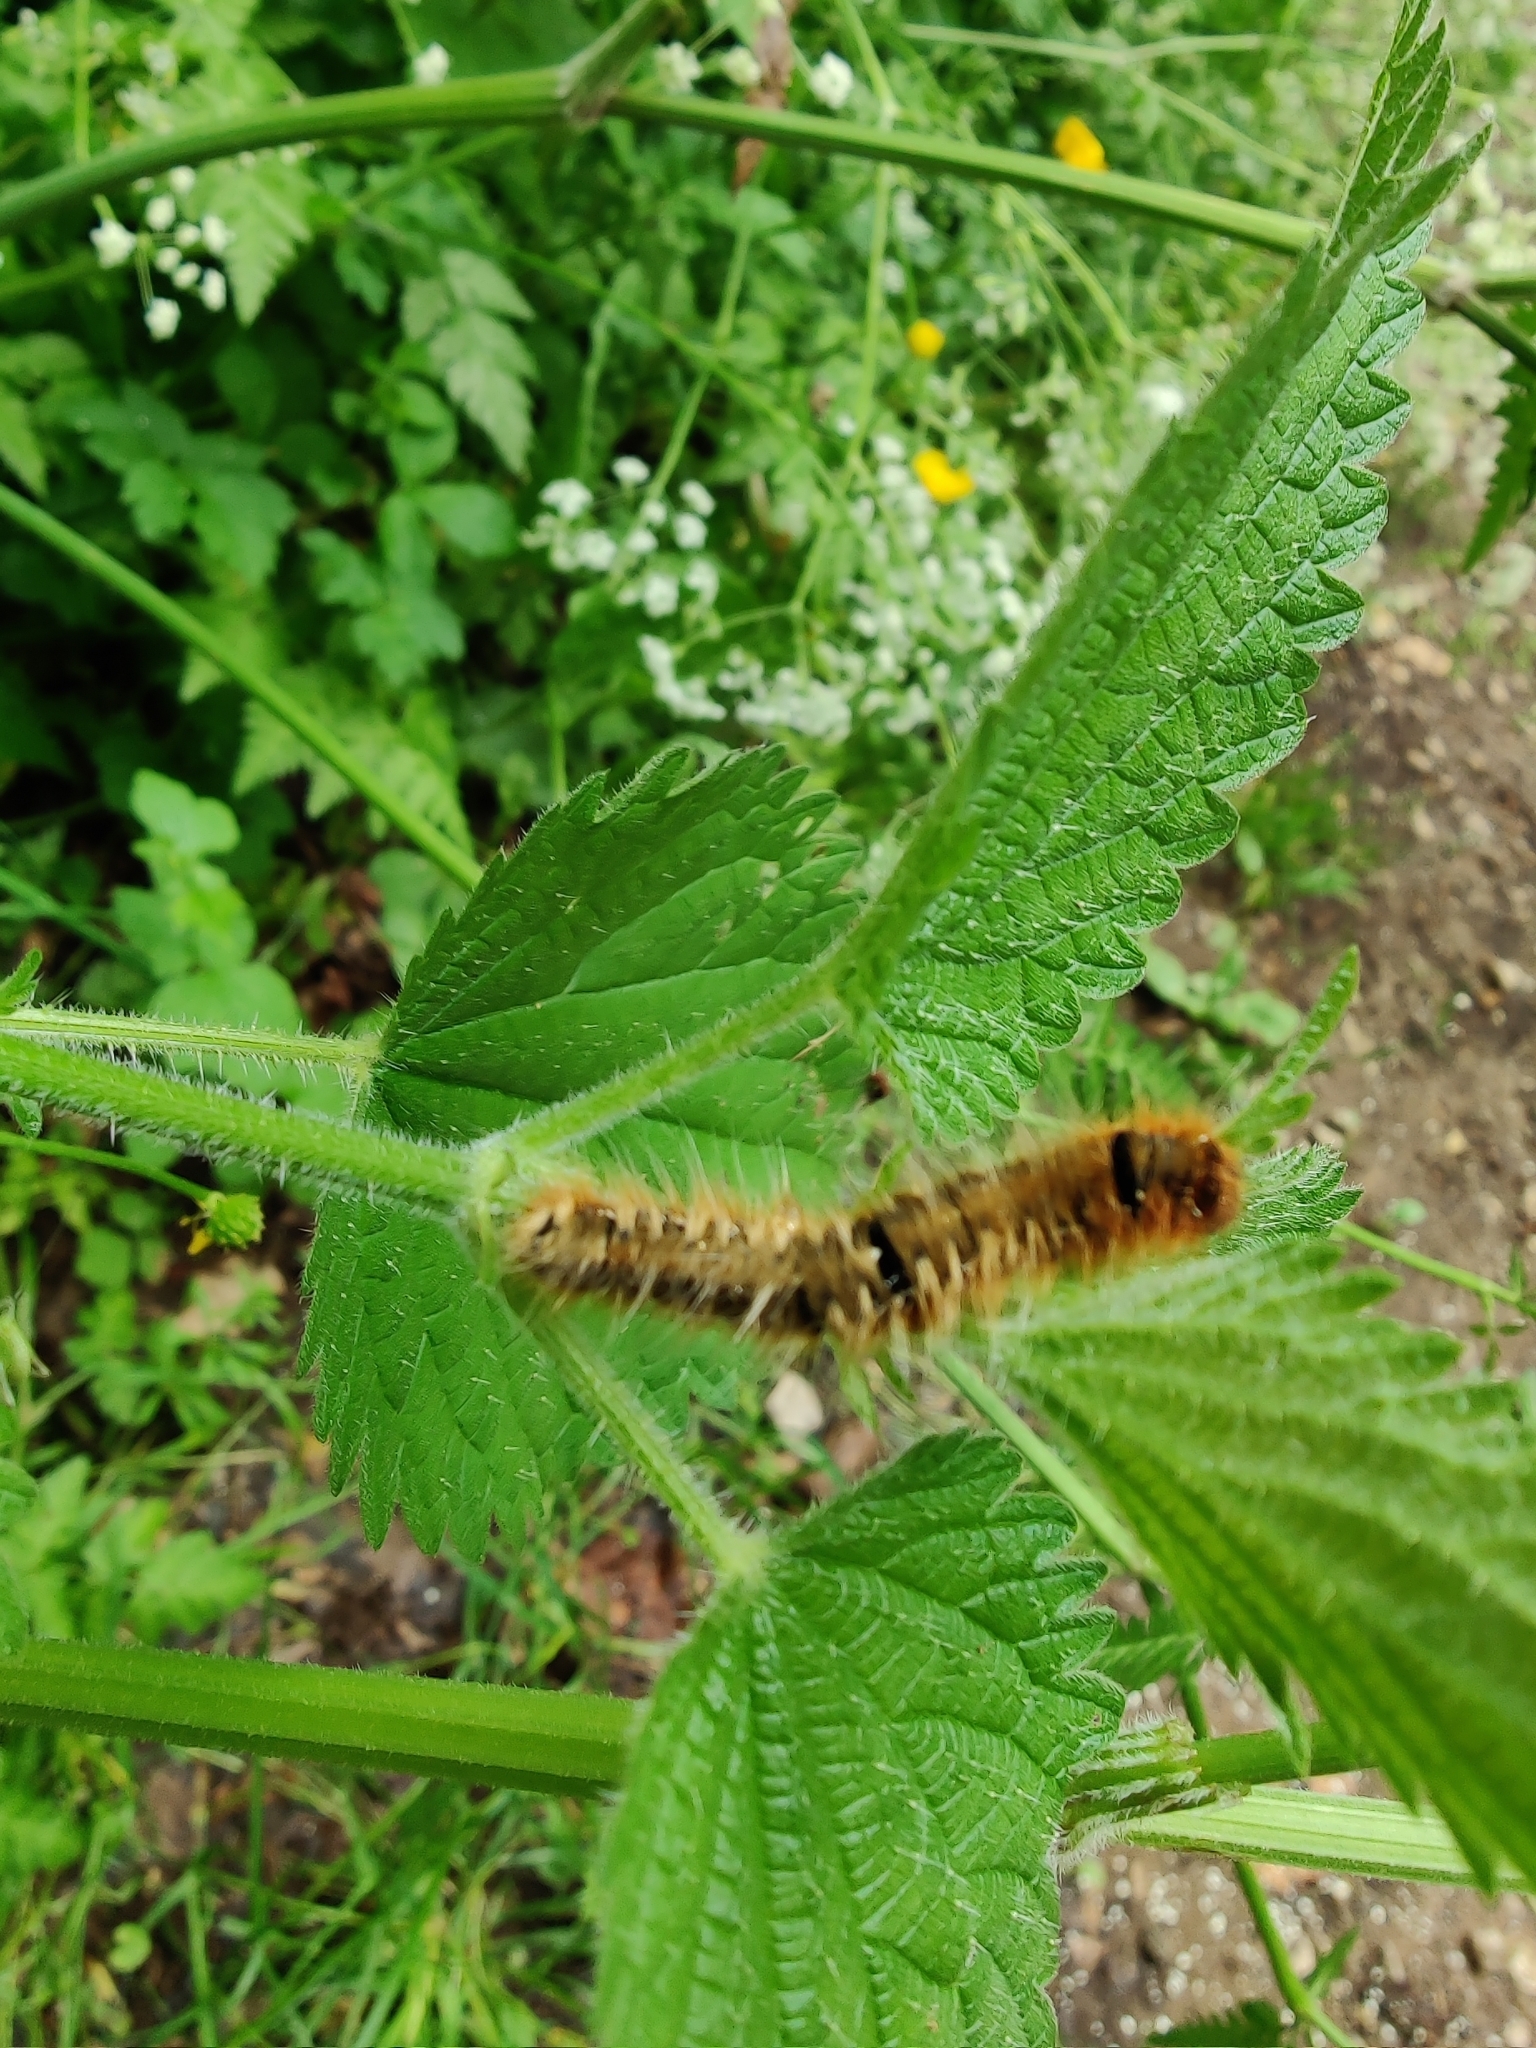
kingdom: Animalia
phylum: Arthropoda
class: Insecta
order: Lepidoptera
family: Lasiocampidae
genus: Lasiocampa
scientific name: Lasiocampa quercus
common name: Oak eggar
